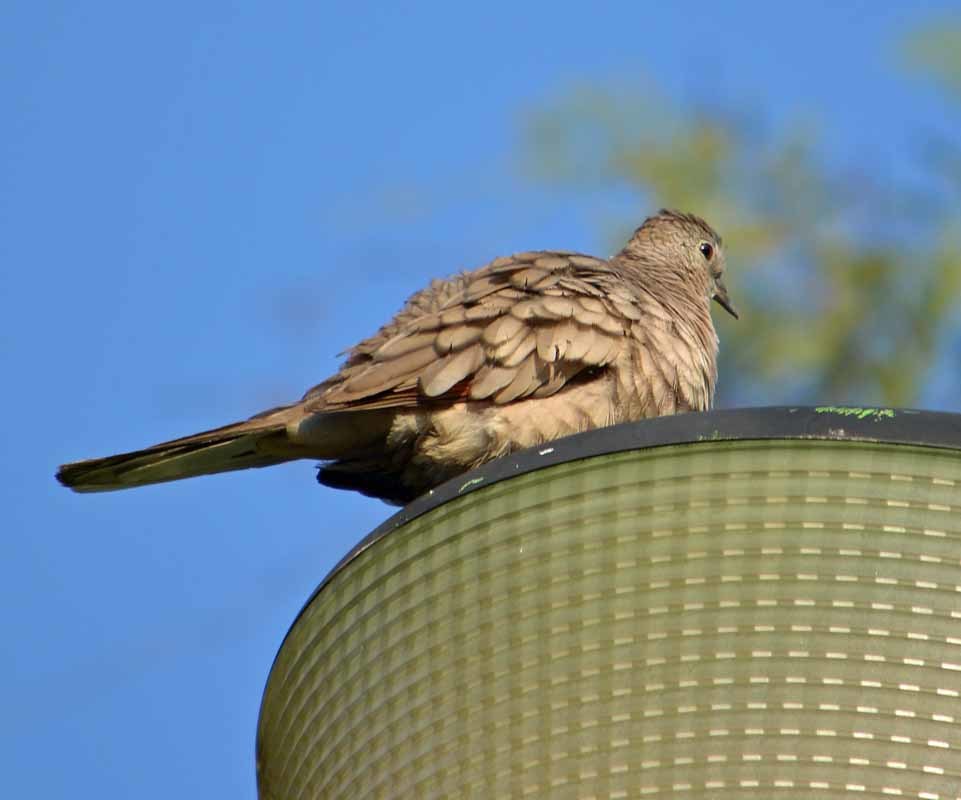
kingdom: Animalia
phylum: Chordata
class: Aves
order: Columbiformes
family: Columbidae
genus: Columbina
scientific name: Columbina inca
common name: Inca dove
